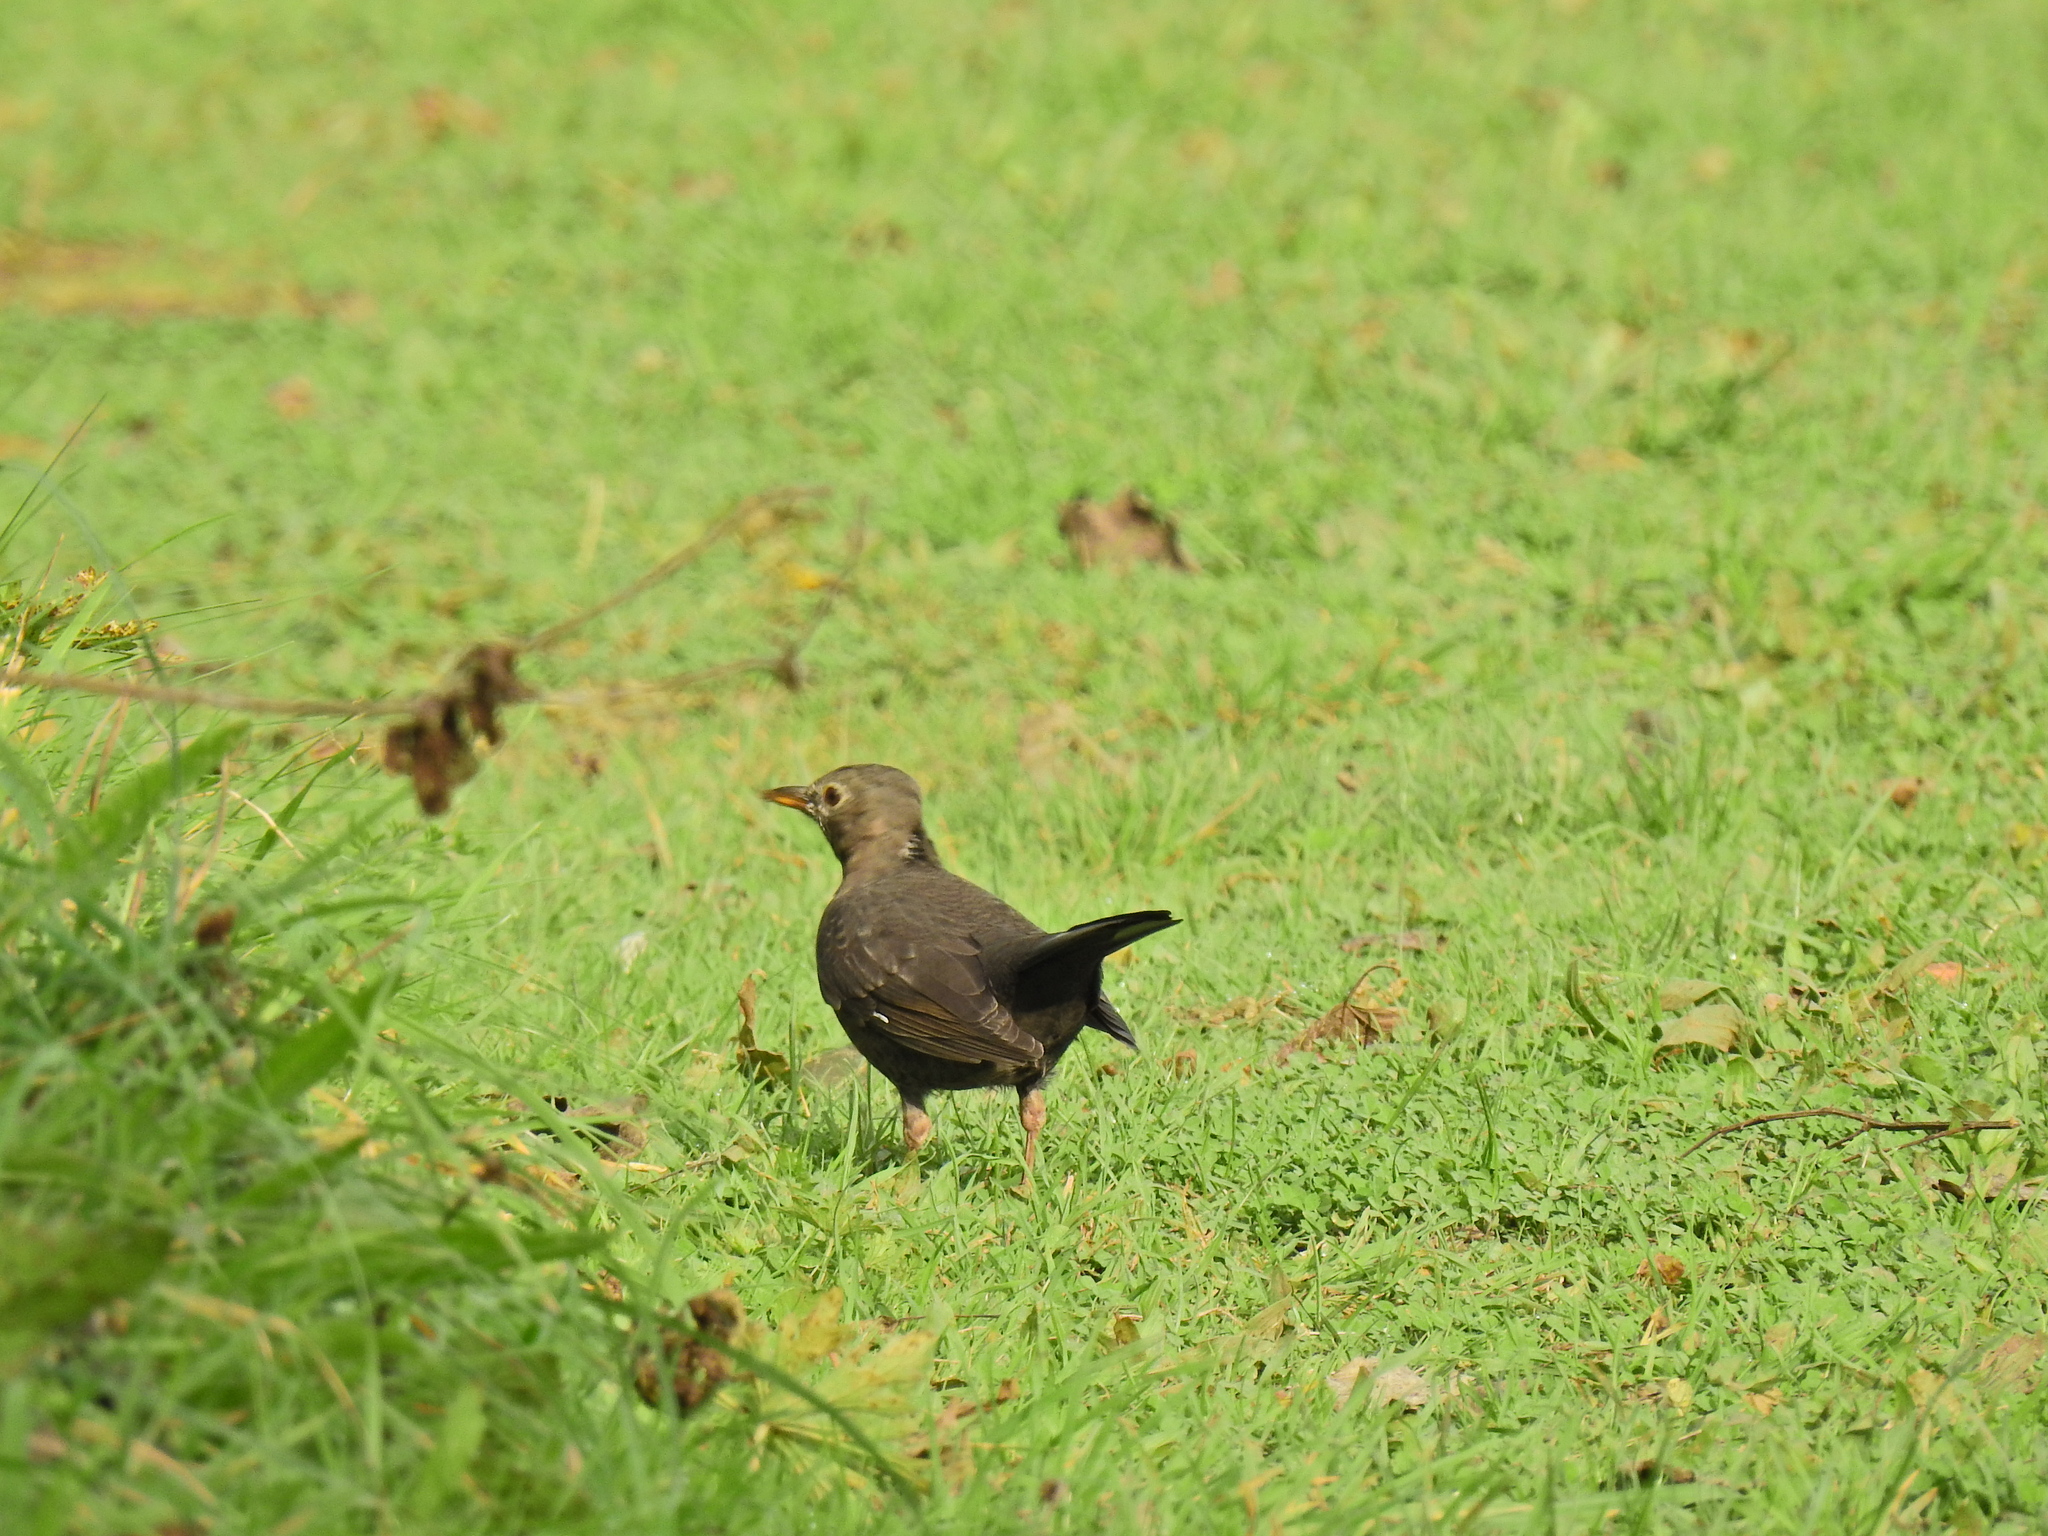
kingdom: Animalia
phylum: Chordata
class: Aves
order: Passeriformes
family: Turdidae
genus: Turdus
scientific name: Turdus merula
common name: Common blackbird
